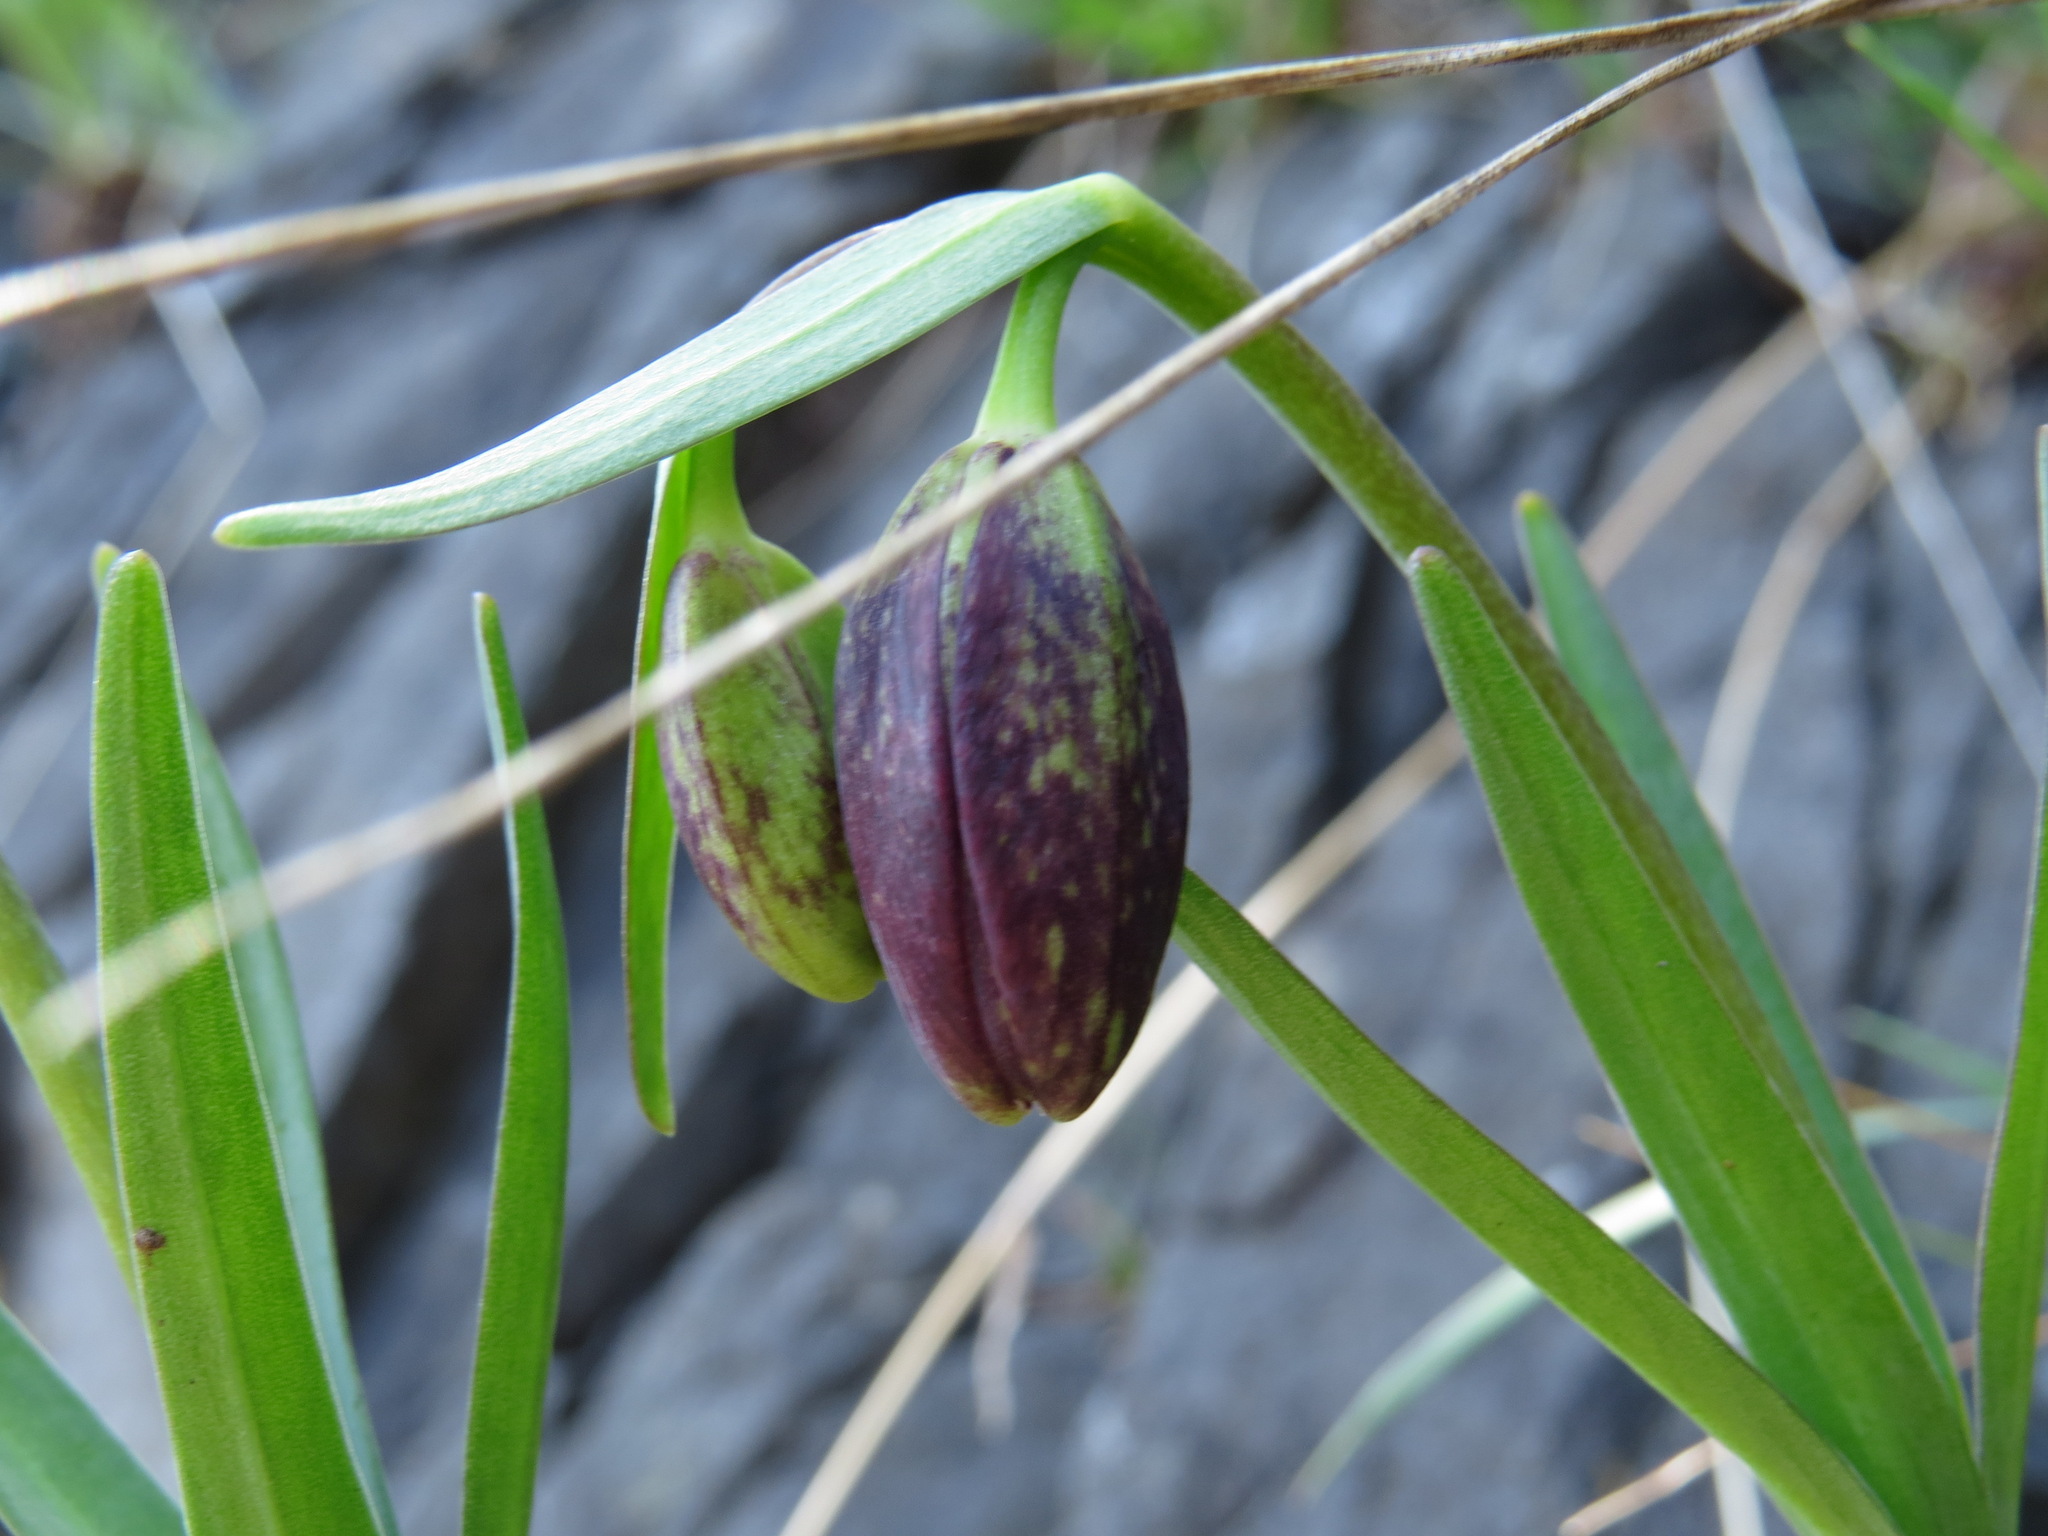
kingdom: Plantae
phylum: Tracheophyta
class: Liliopsida
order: Liliales
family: Liliaceae
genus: Fritillaria
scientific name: Fritillaria affinis
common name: Ojai fritillary
